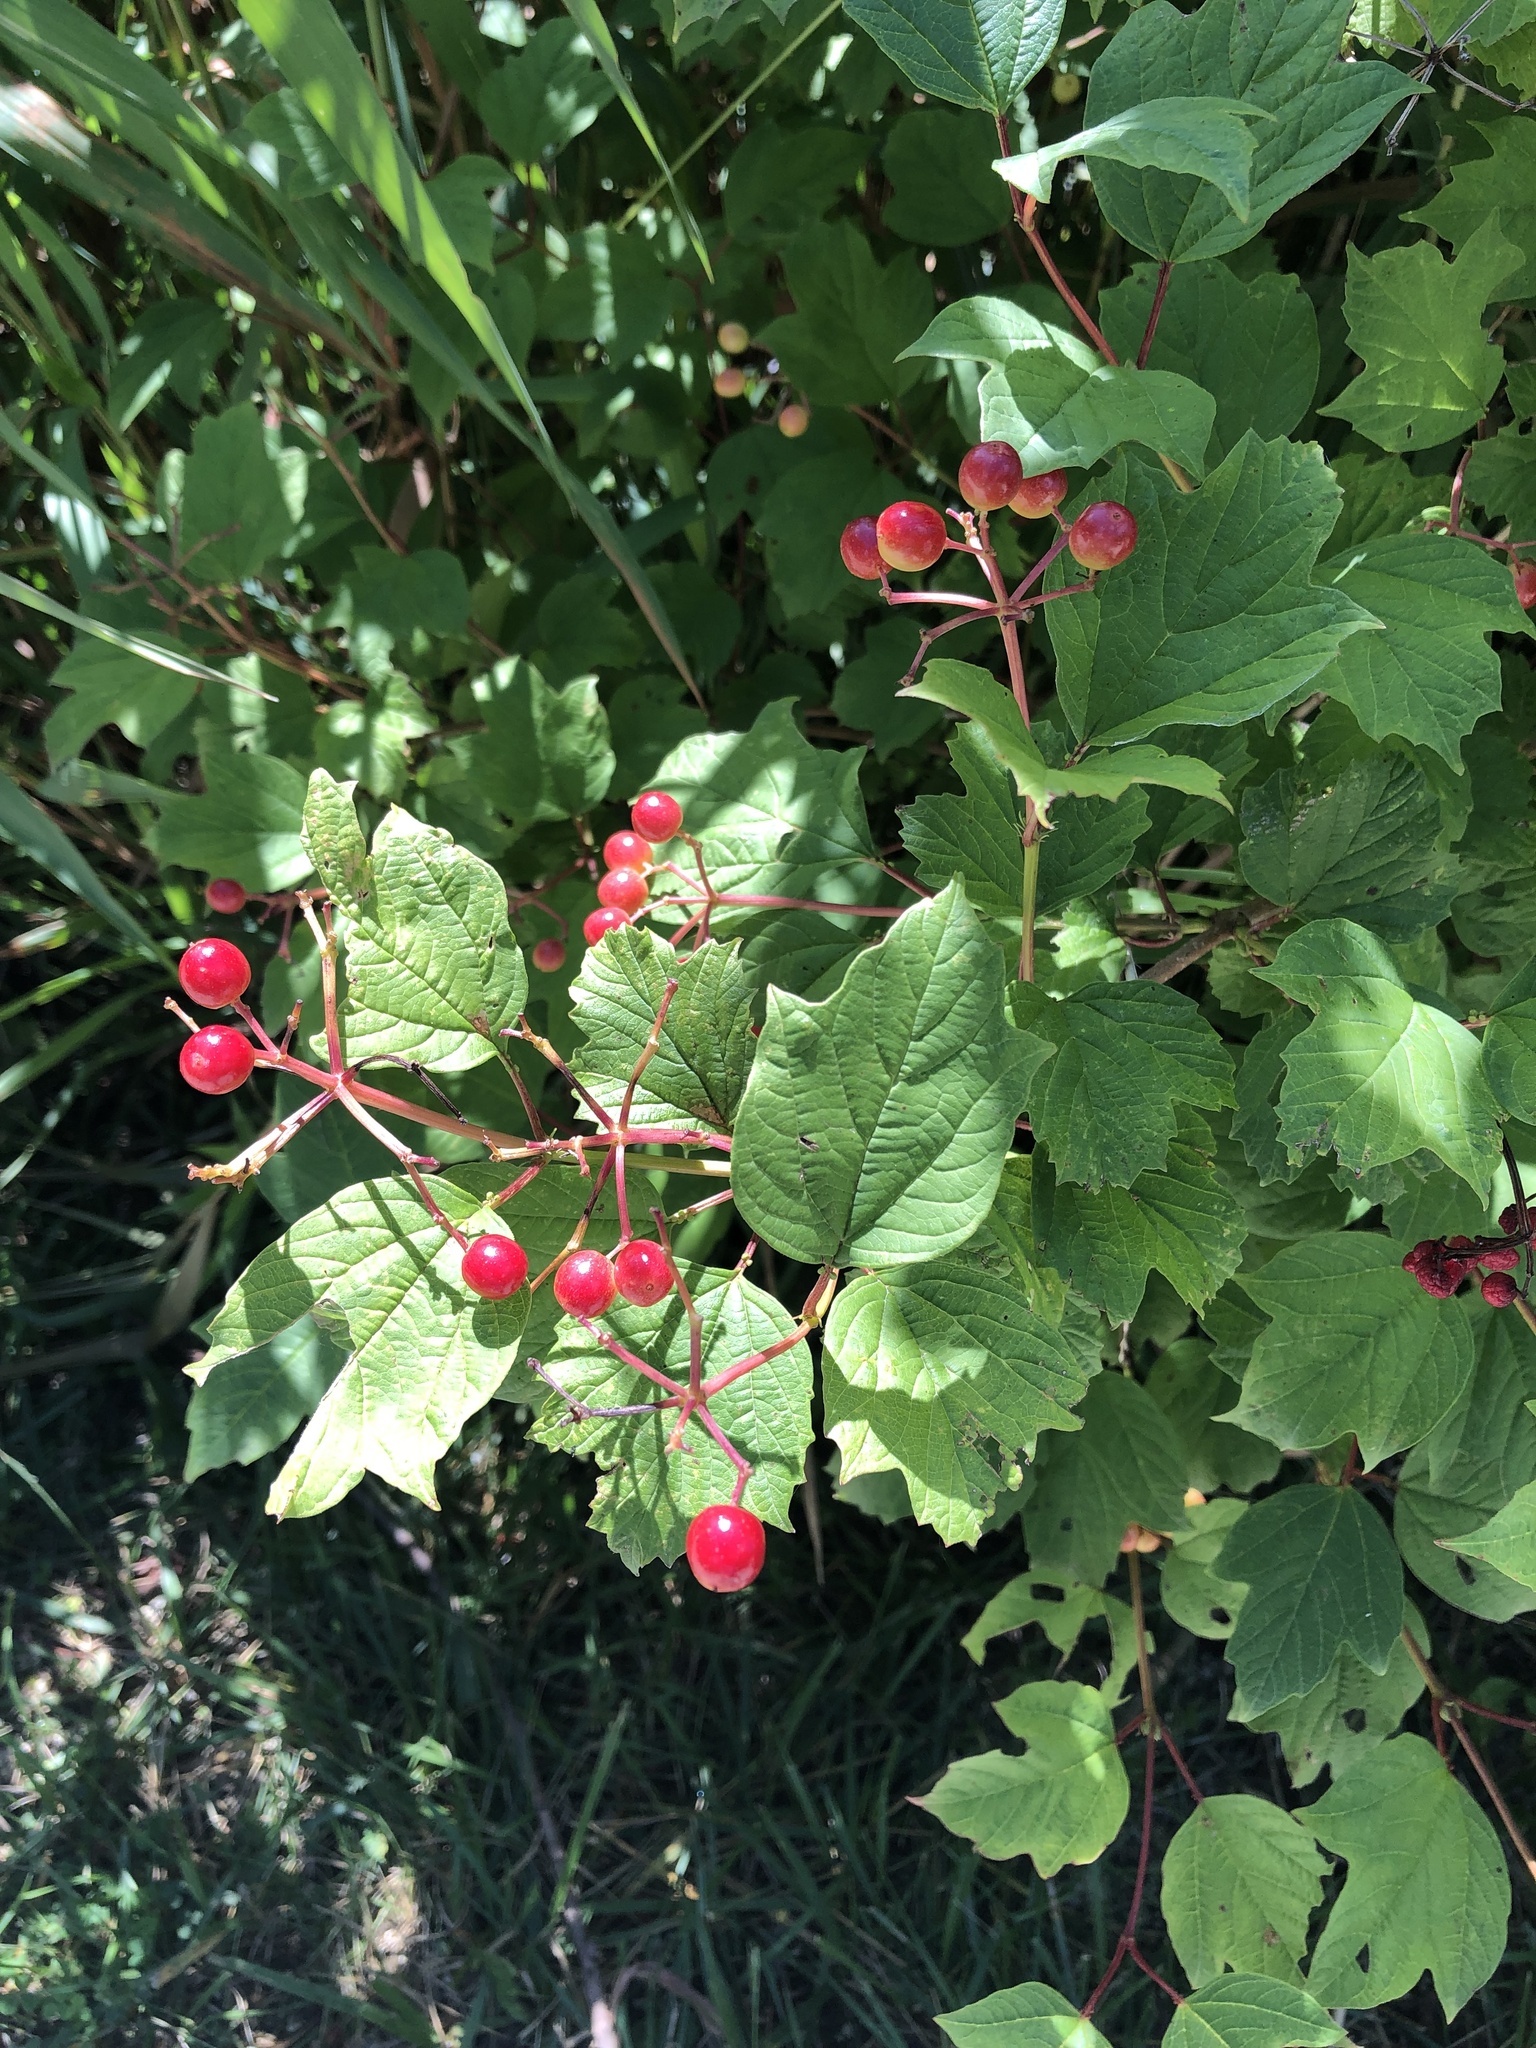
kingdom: Plantae
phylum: Tracheophyta
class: Magnoliopsida
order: Dipsacales
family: Viburnaceae
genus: Viburnum
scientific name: Viburnum opulus
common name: Guelder-rose
